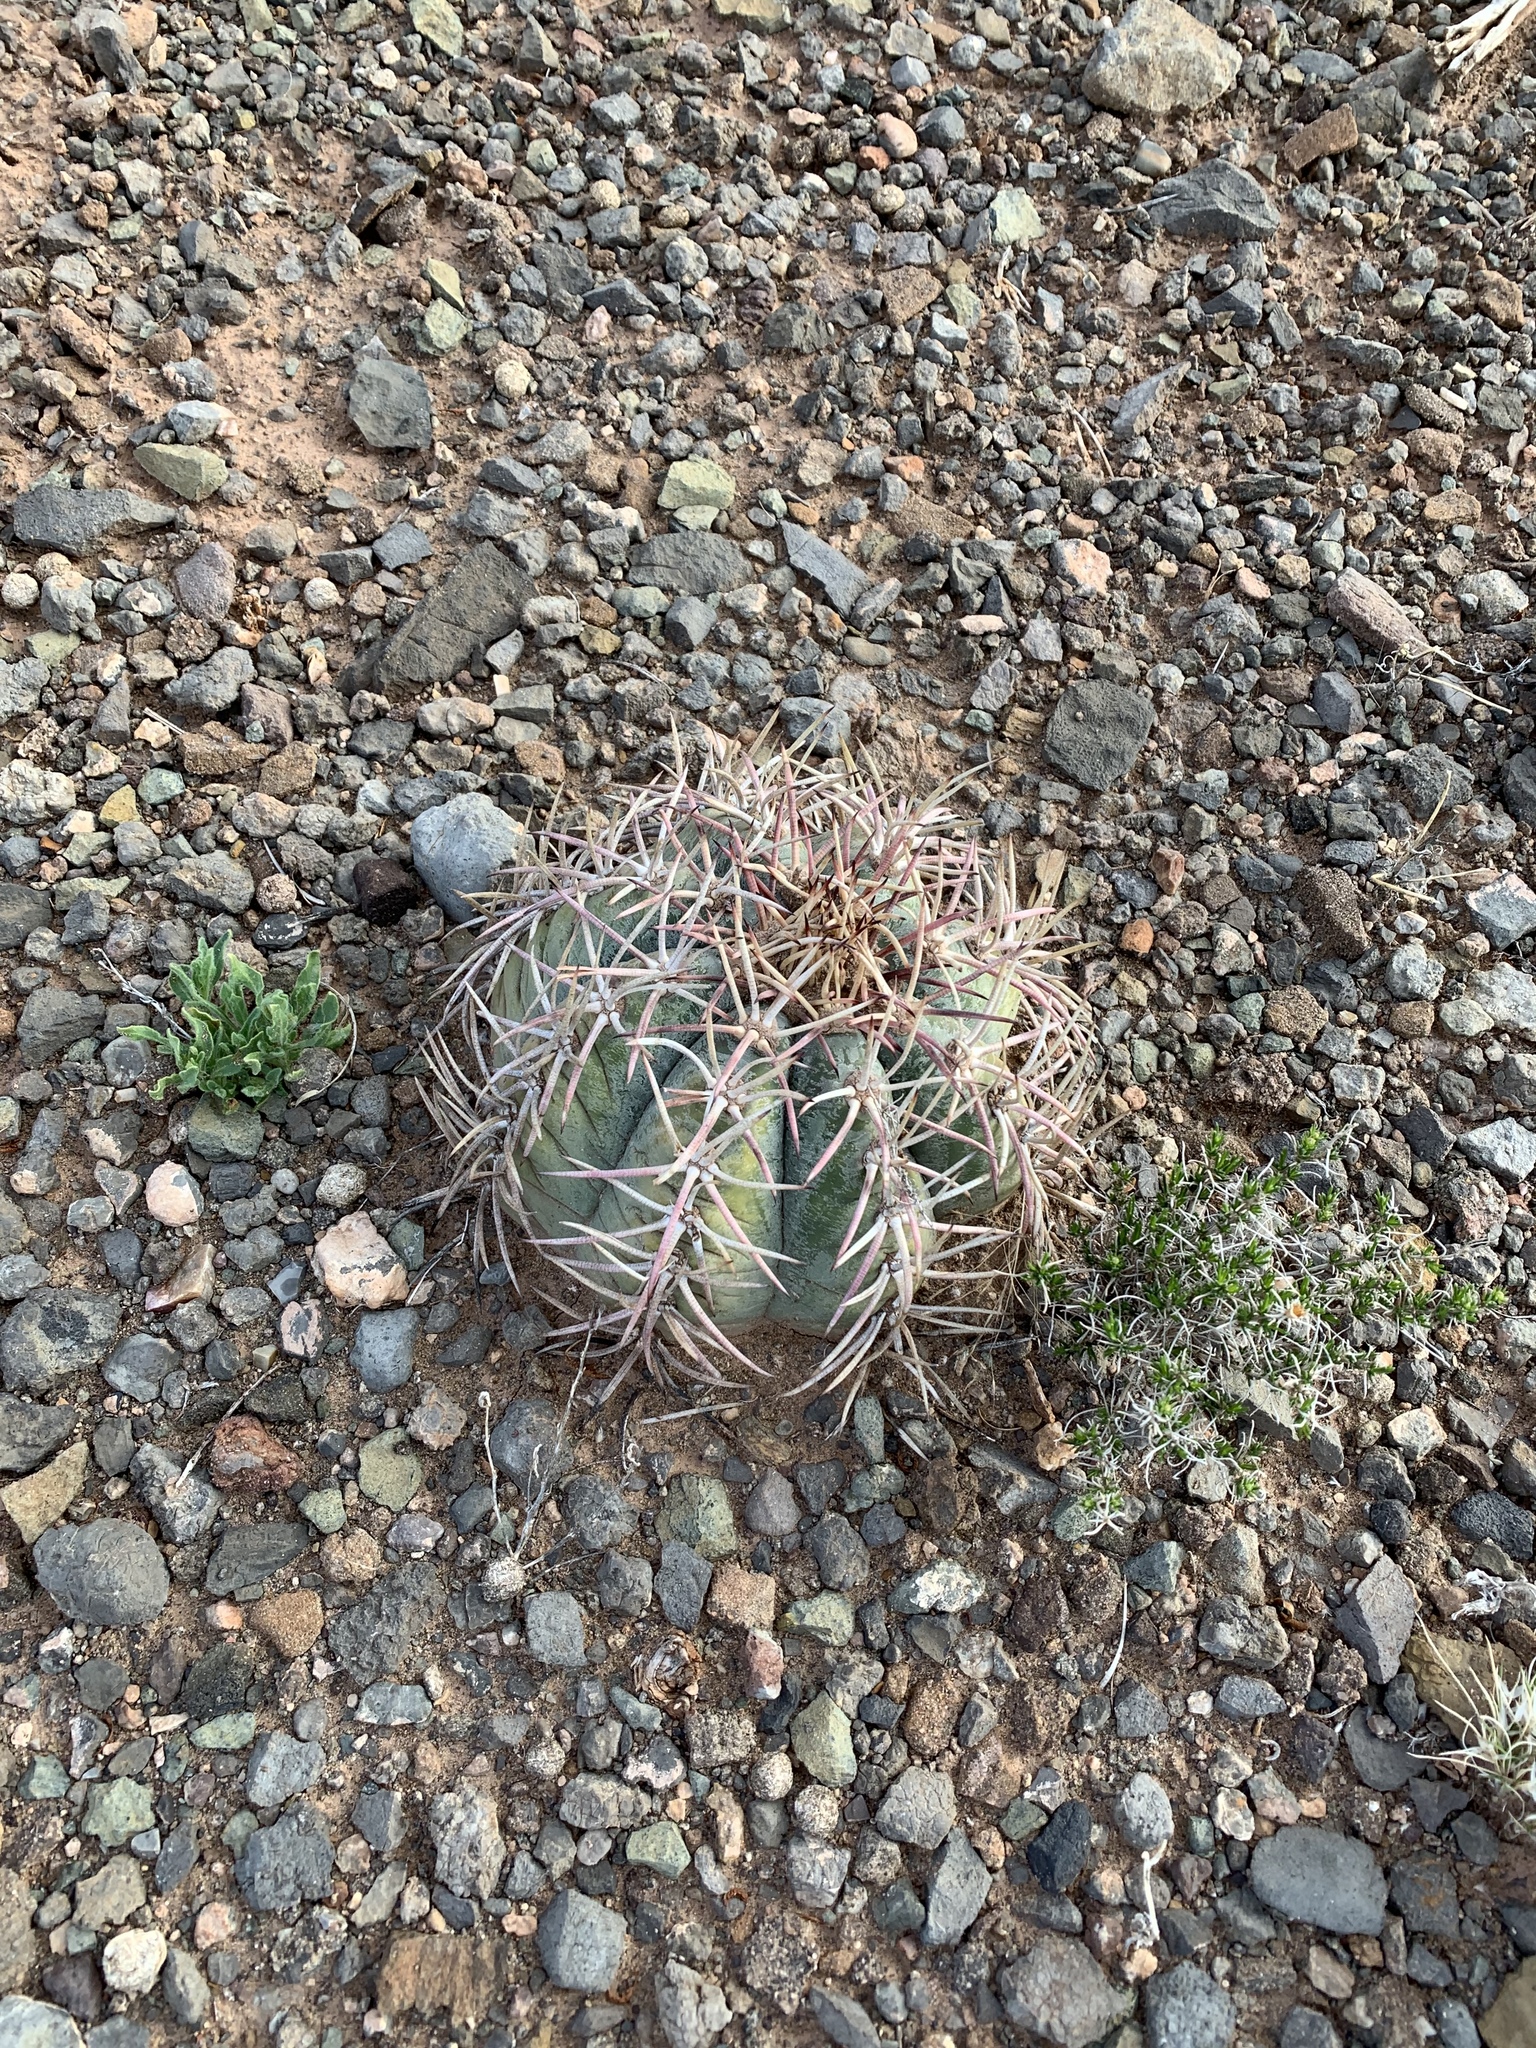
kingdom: Plantae
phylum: Tracheophyta
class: Magnoliopsida
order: Caryophyllales
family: Cactaceae
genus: Echinocactus
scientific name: Echinocactus horizonthalonius
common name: Devilshead
